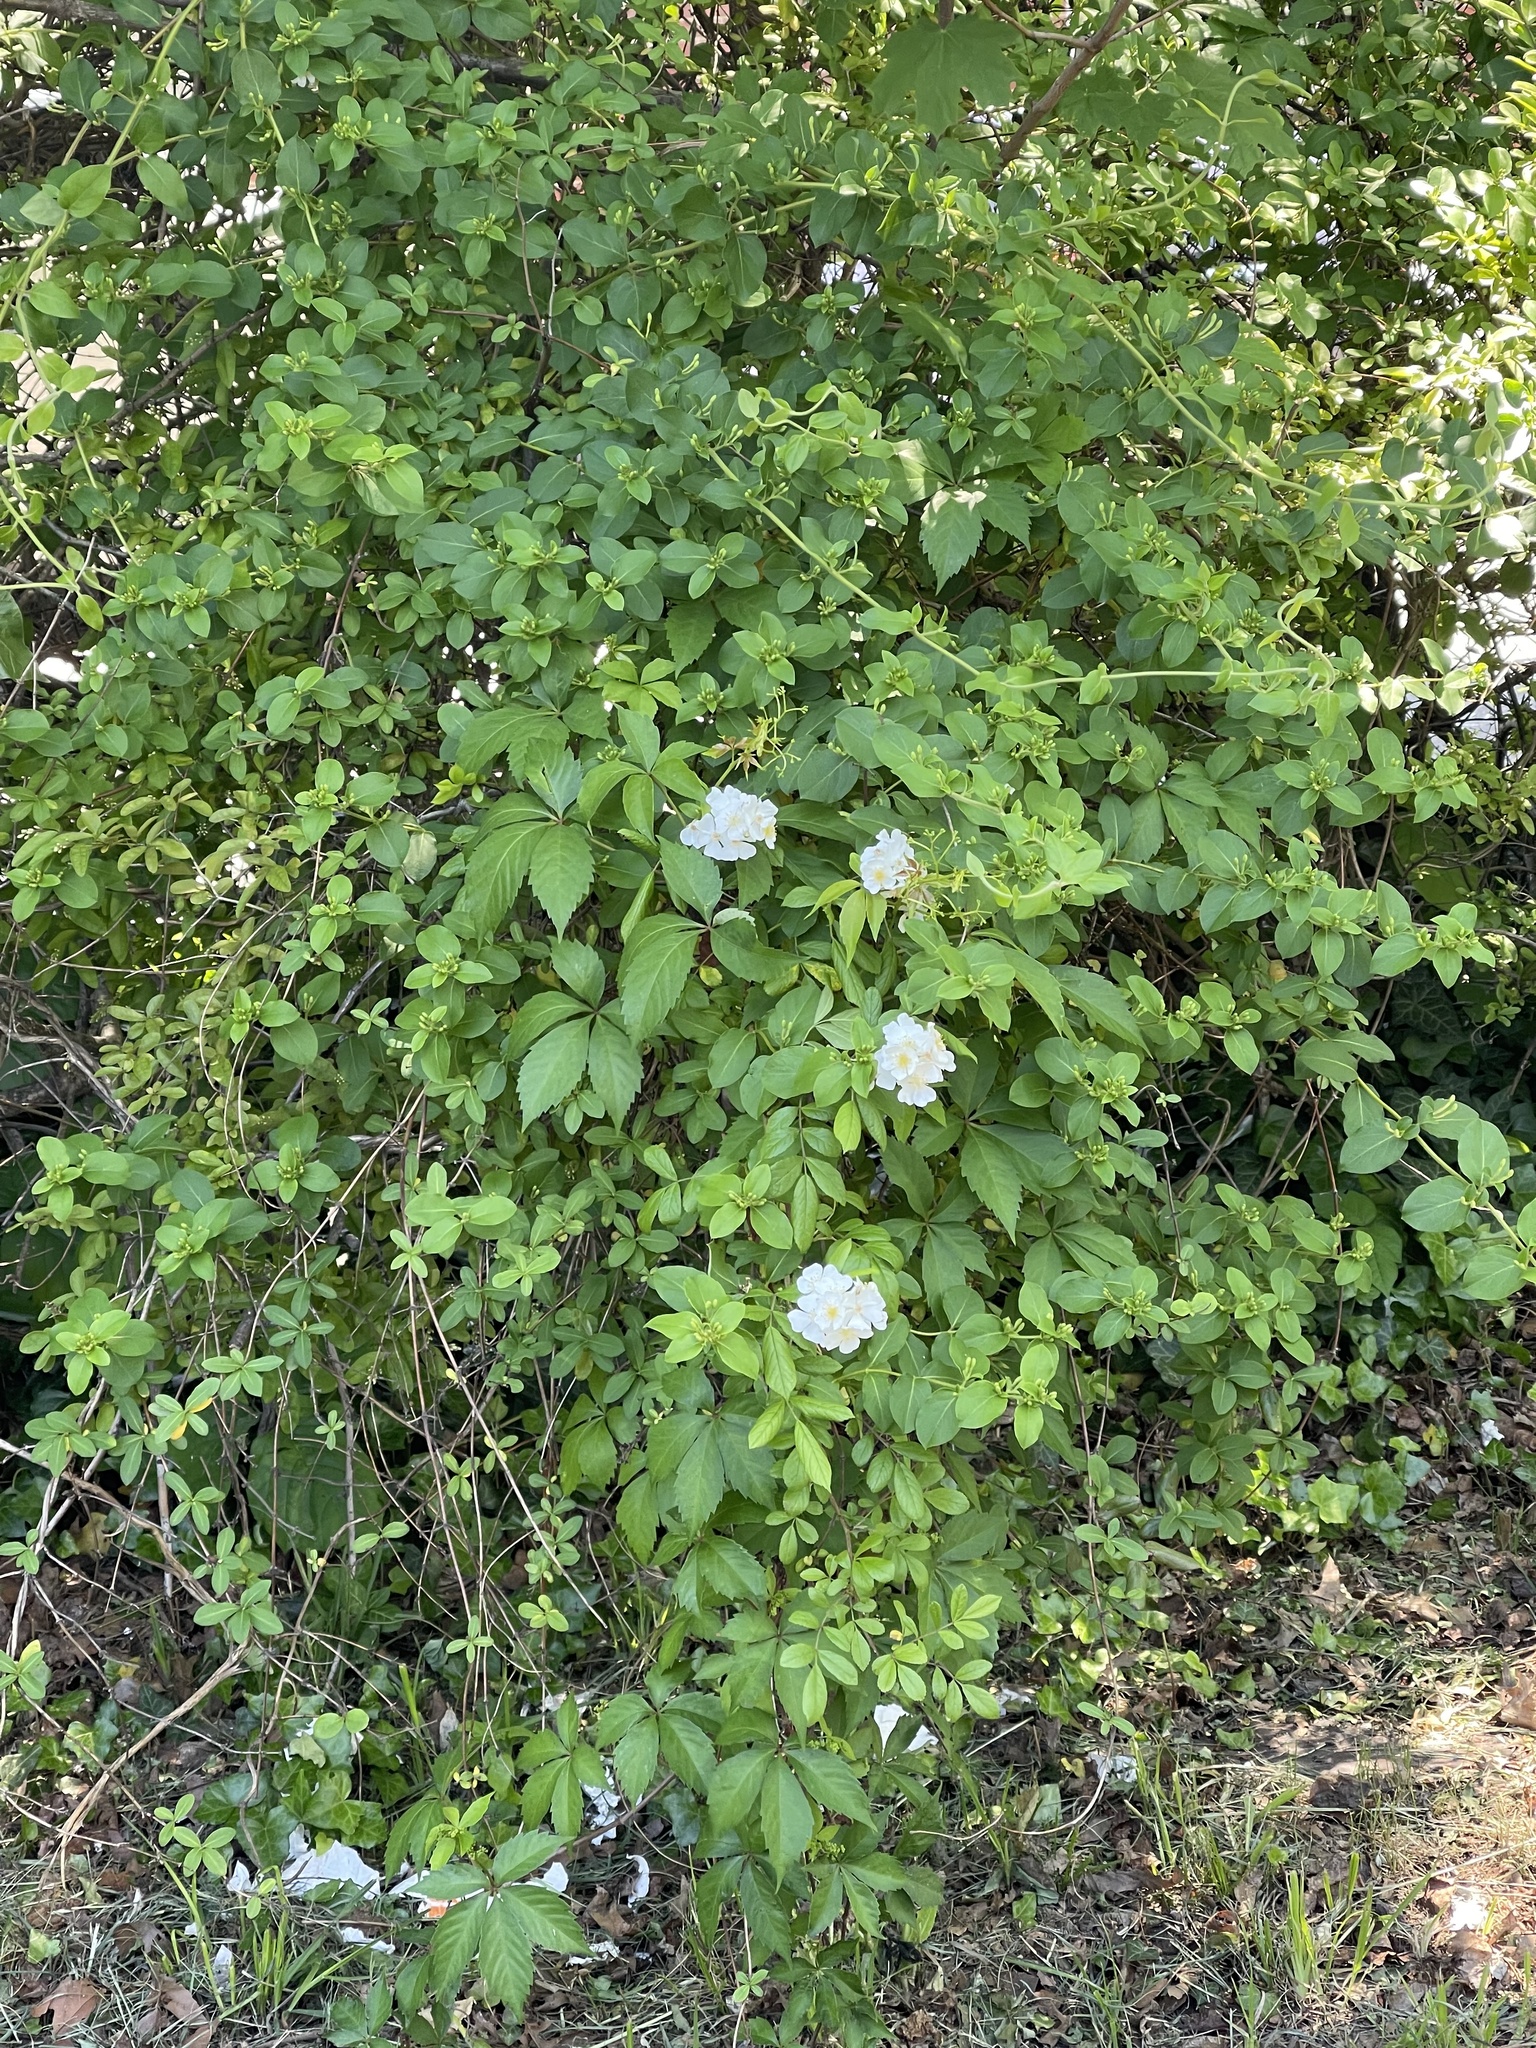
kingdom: Plantae
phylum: Tracheophyta
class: Magnoliopsida
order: Rosales
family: Rosaceae
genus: Rosa
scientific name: Rosa multiflora
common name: Multiflora rose
